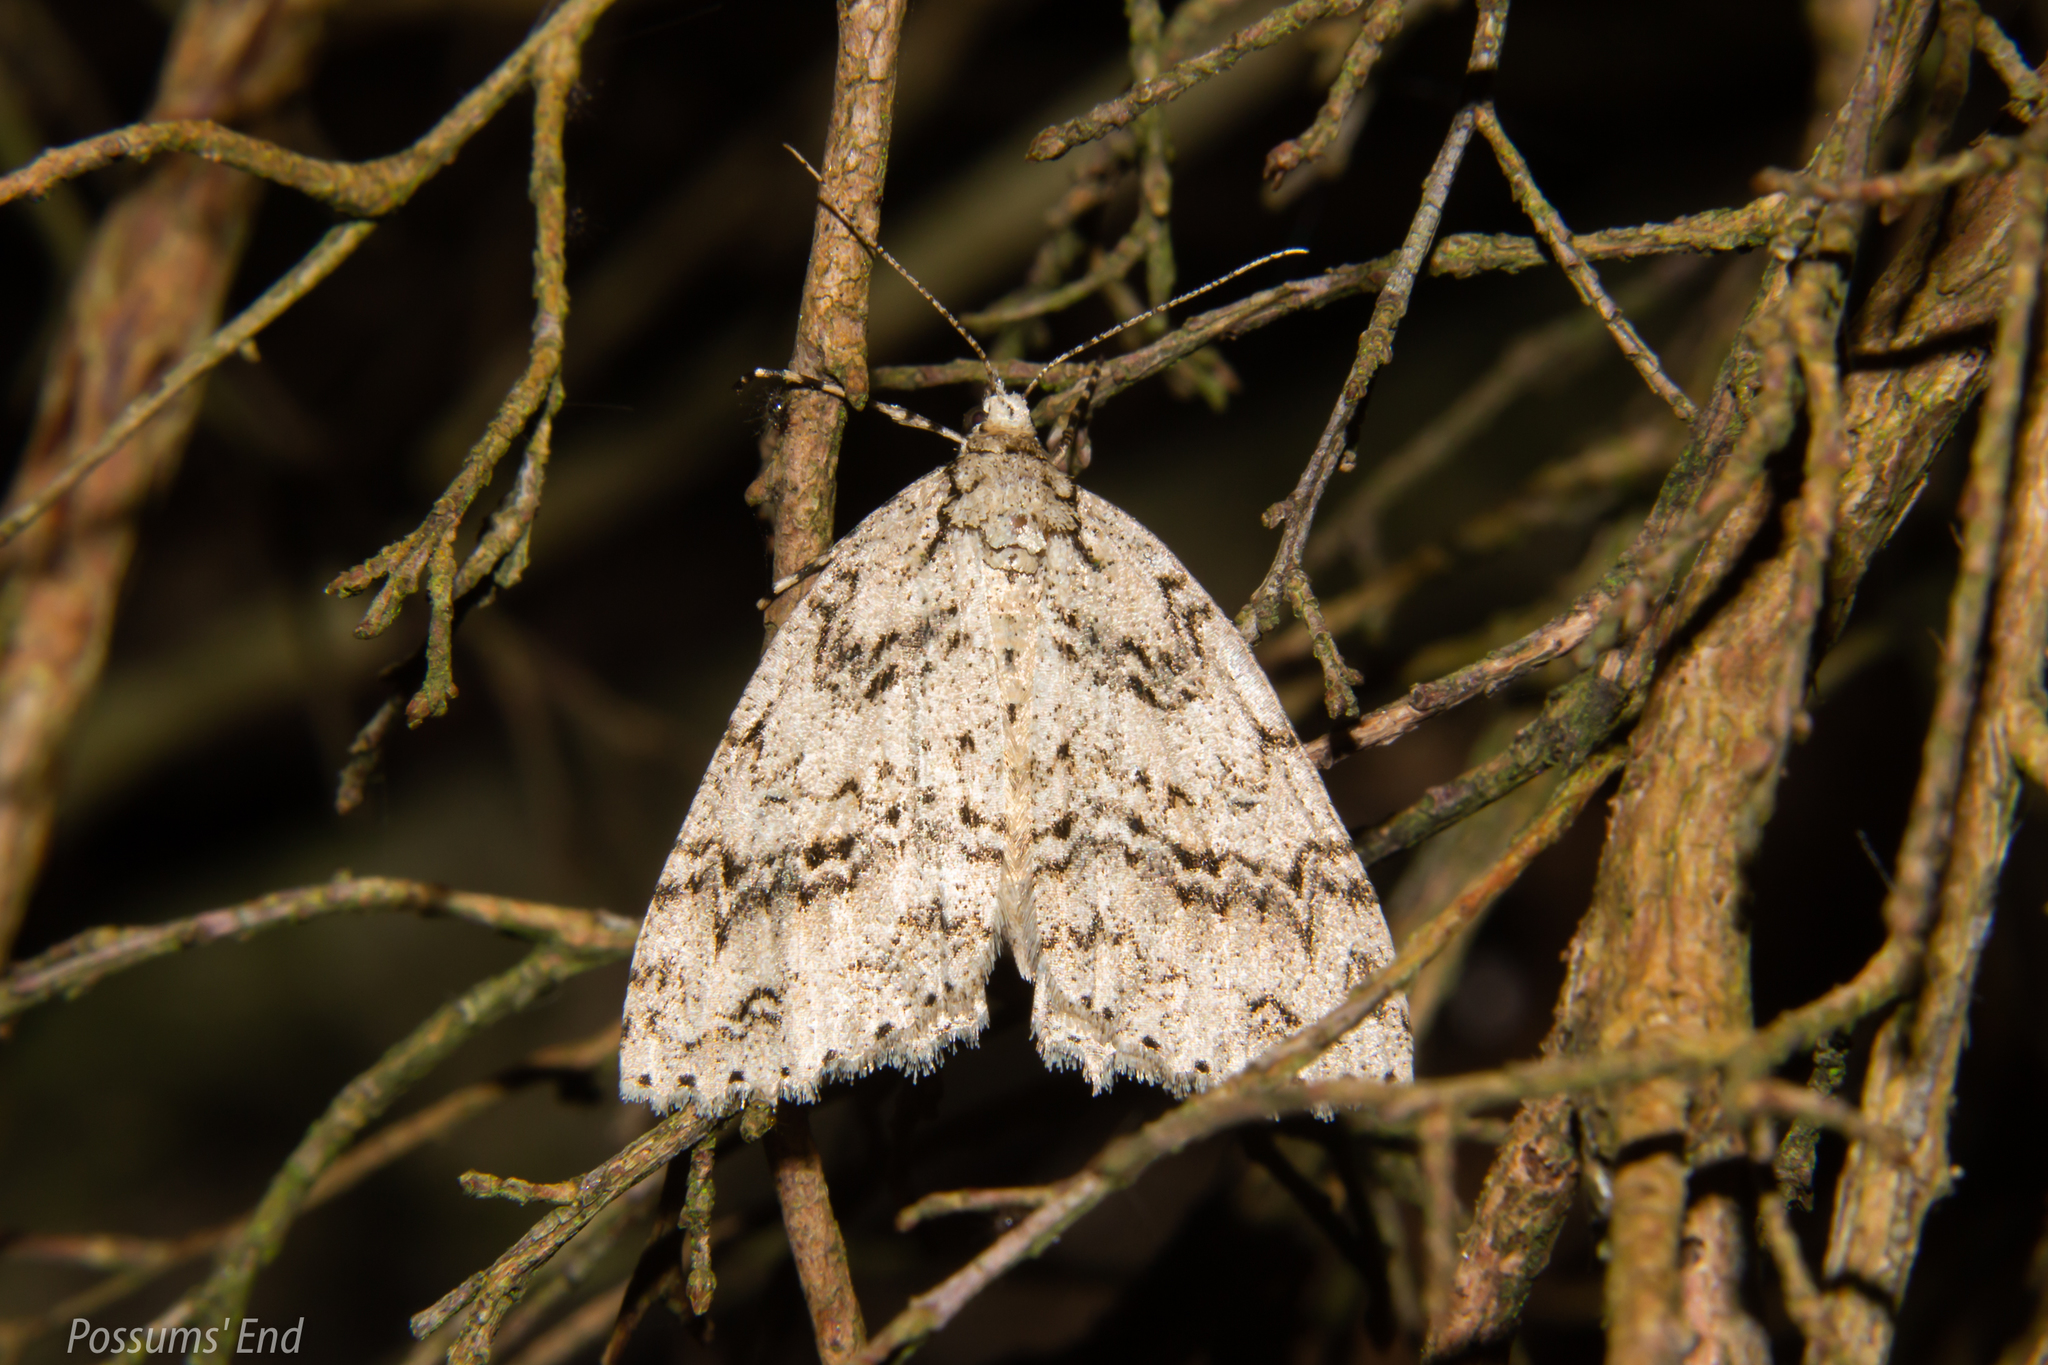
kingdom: Animalia
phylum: Arthropoda
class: Insecta
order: Lepidoptera
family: Geometridae
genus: Pseudocoremia
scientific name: Pseudocoremia rudisata
